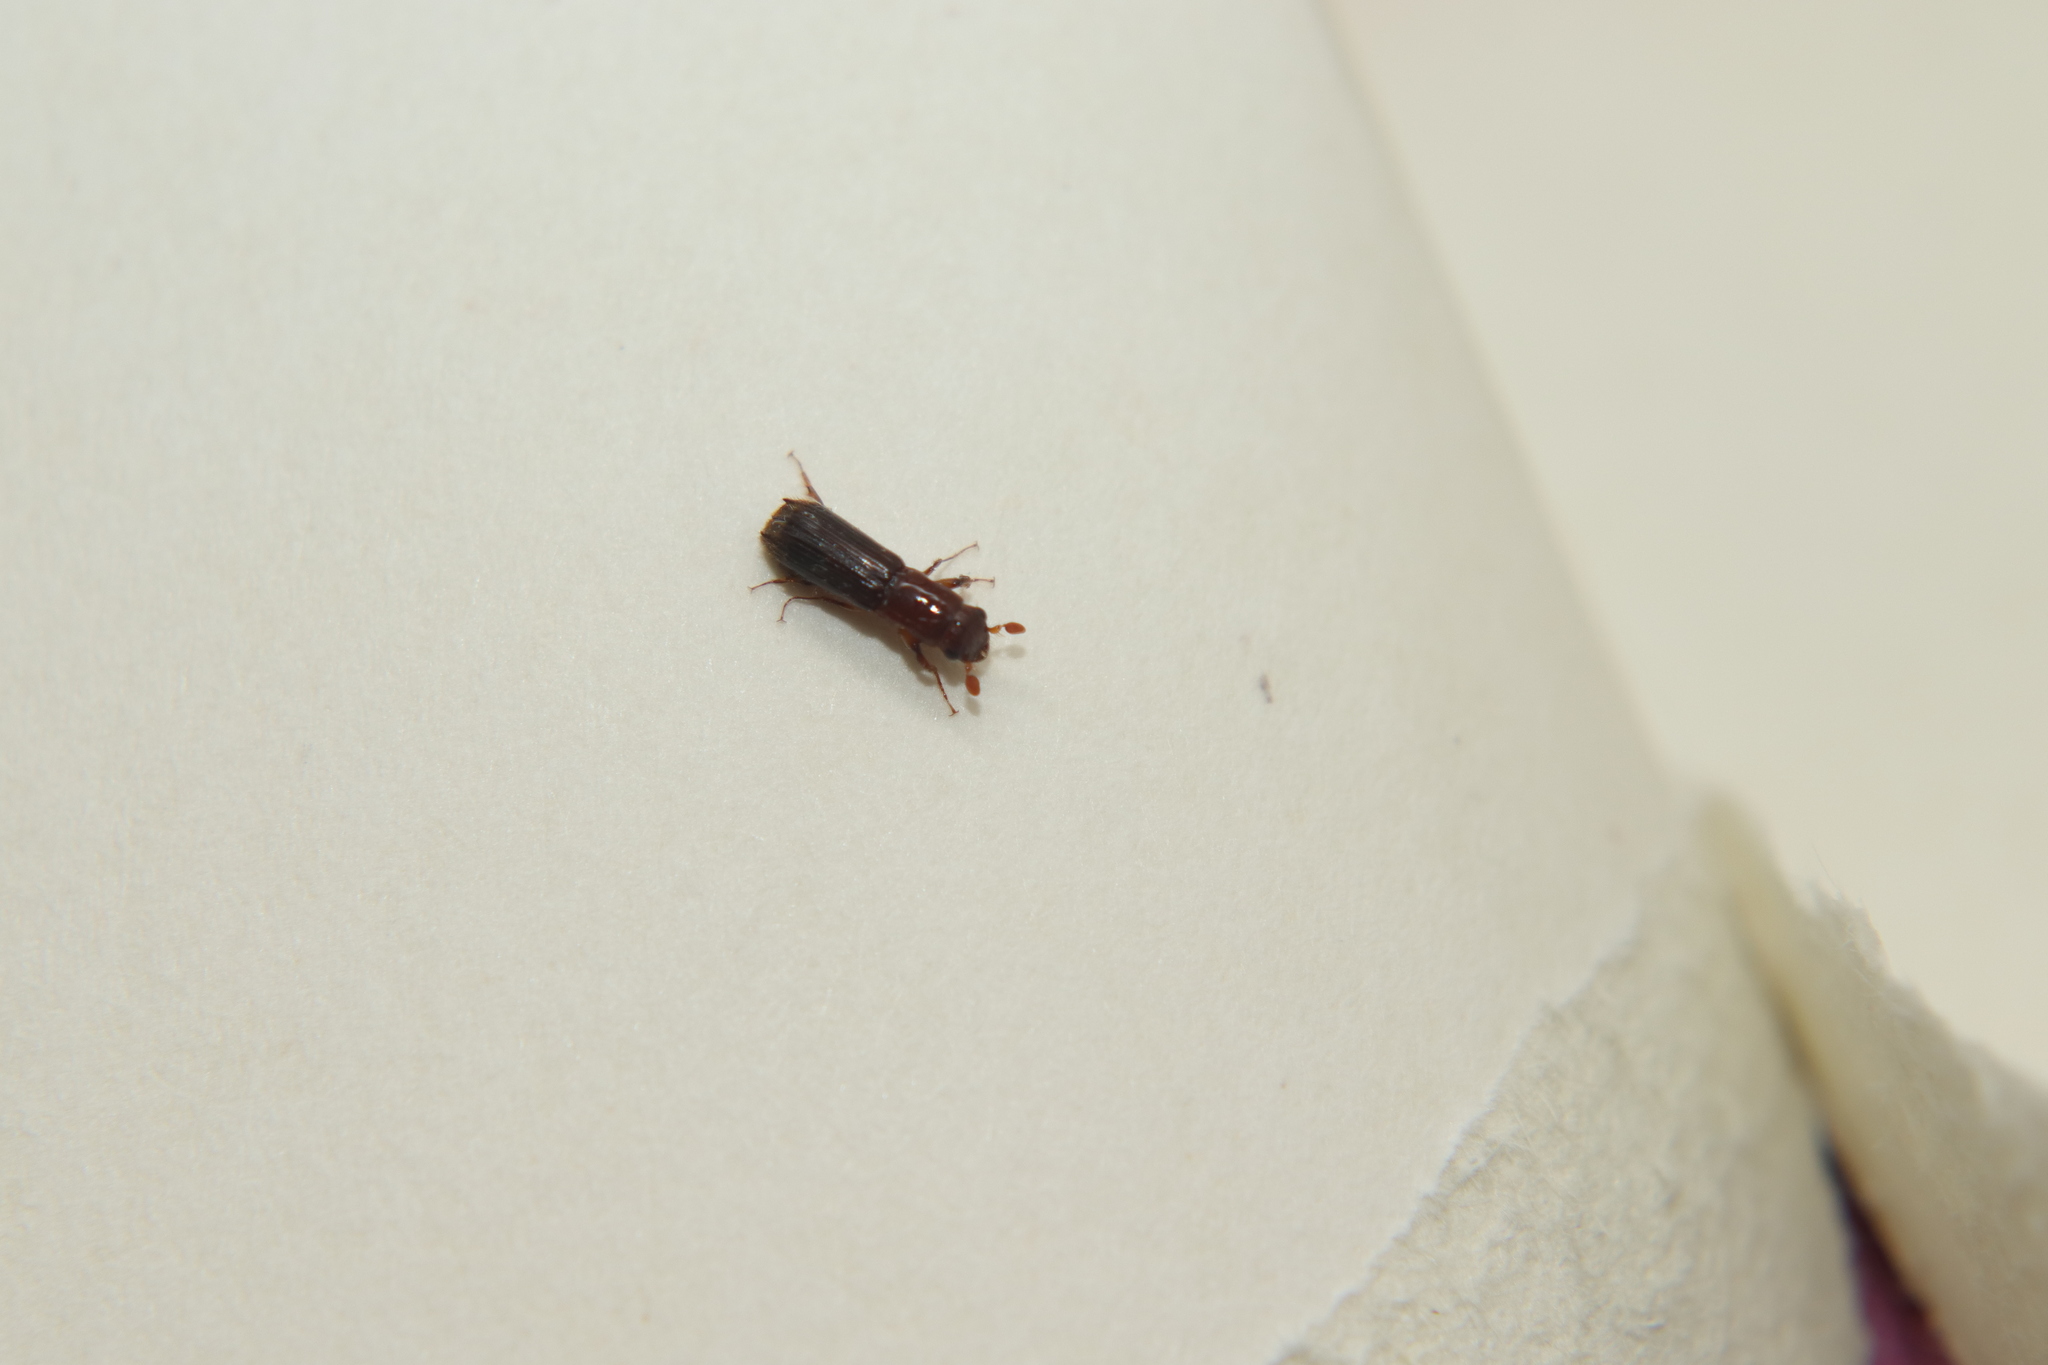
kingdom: Animalia
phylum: Arthropoda
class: Insecta
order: Coleoptera
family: Curculionidae
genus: Platypus
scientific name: Platypus apicalis
